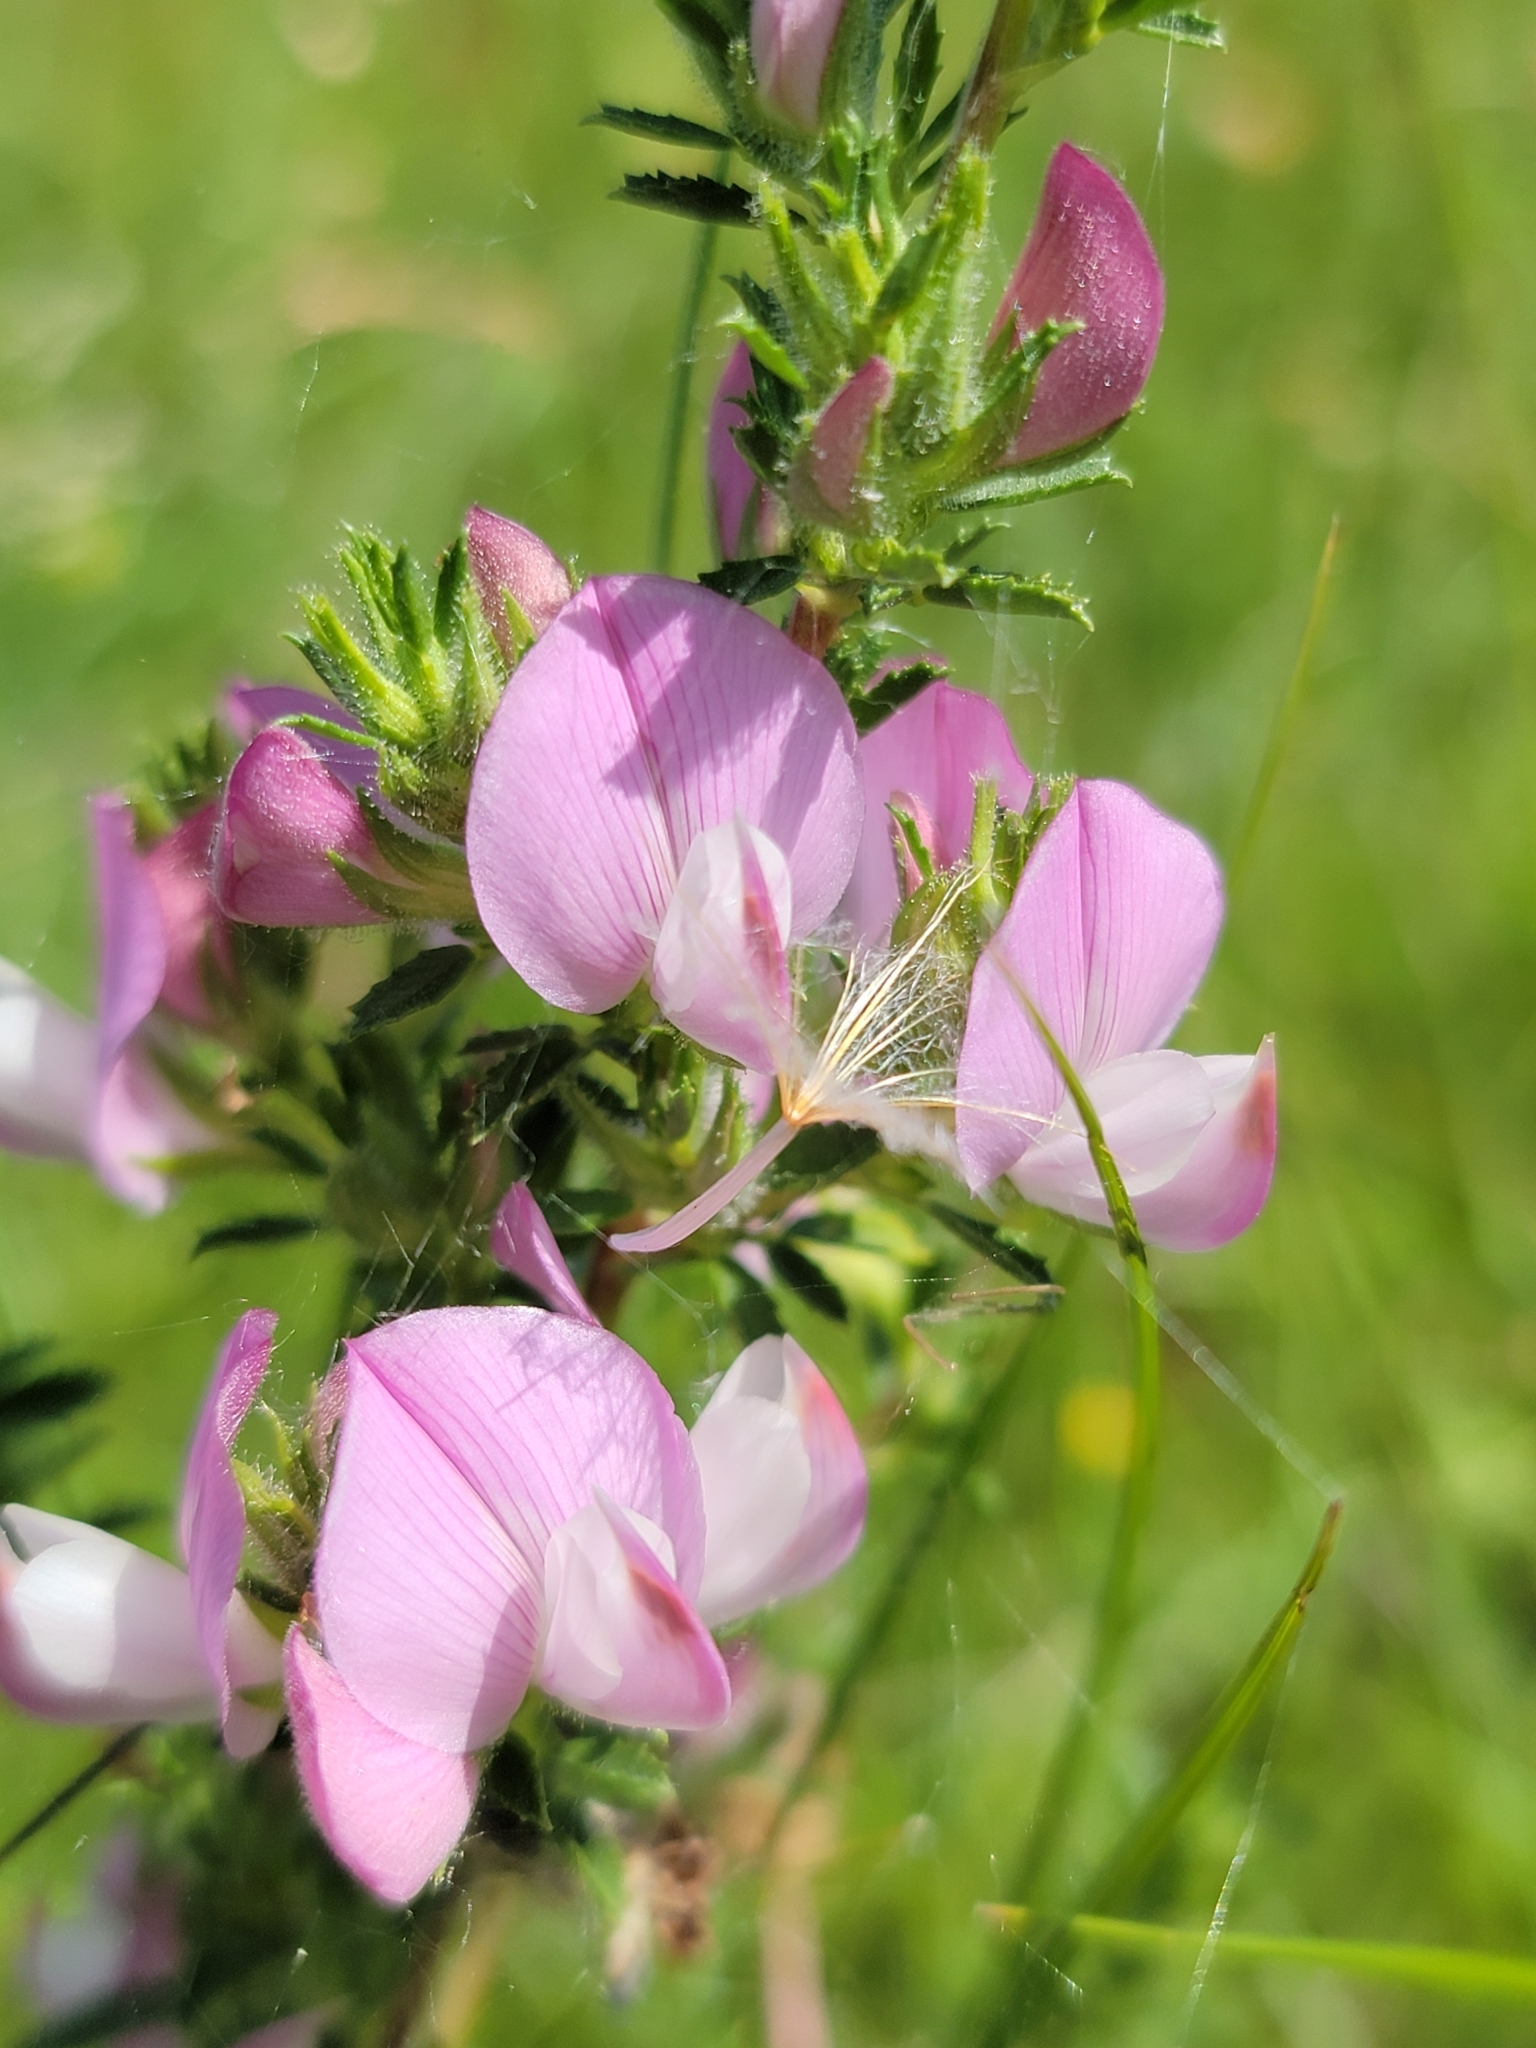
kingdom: Plantae
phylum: Tracheophyta
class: Magnoliopsida
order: Fabales
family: Fabaceae
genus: Ononis
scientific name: Ononis spinosa
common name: Spiny restharrow
